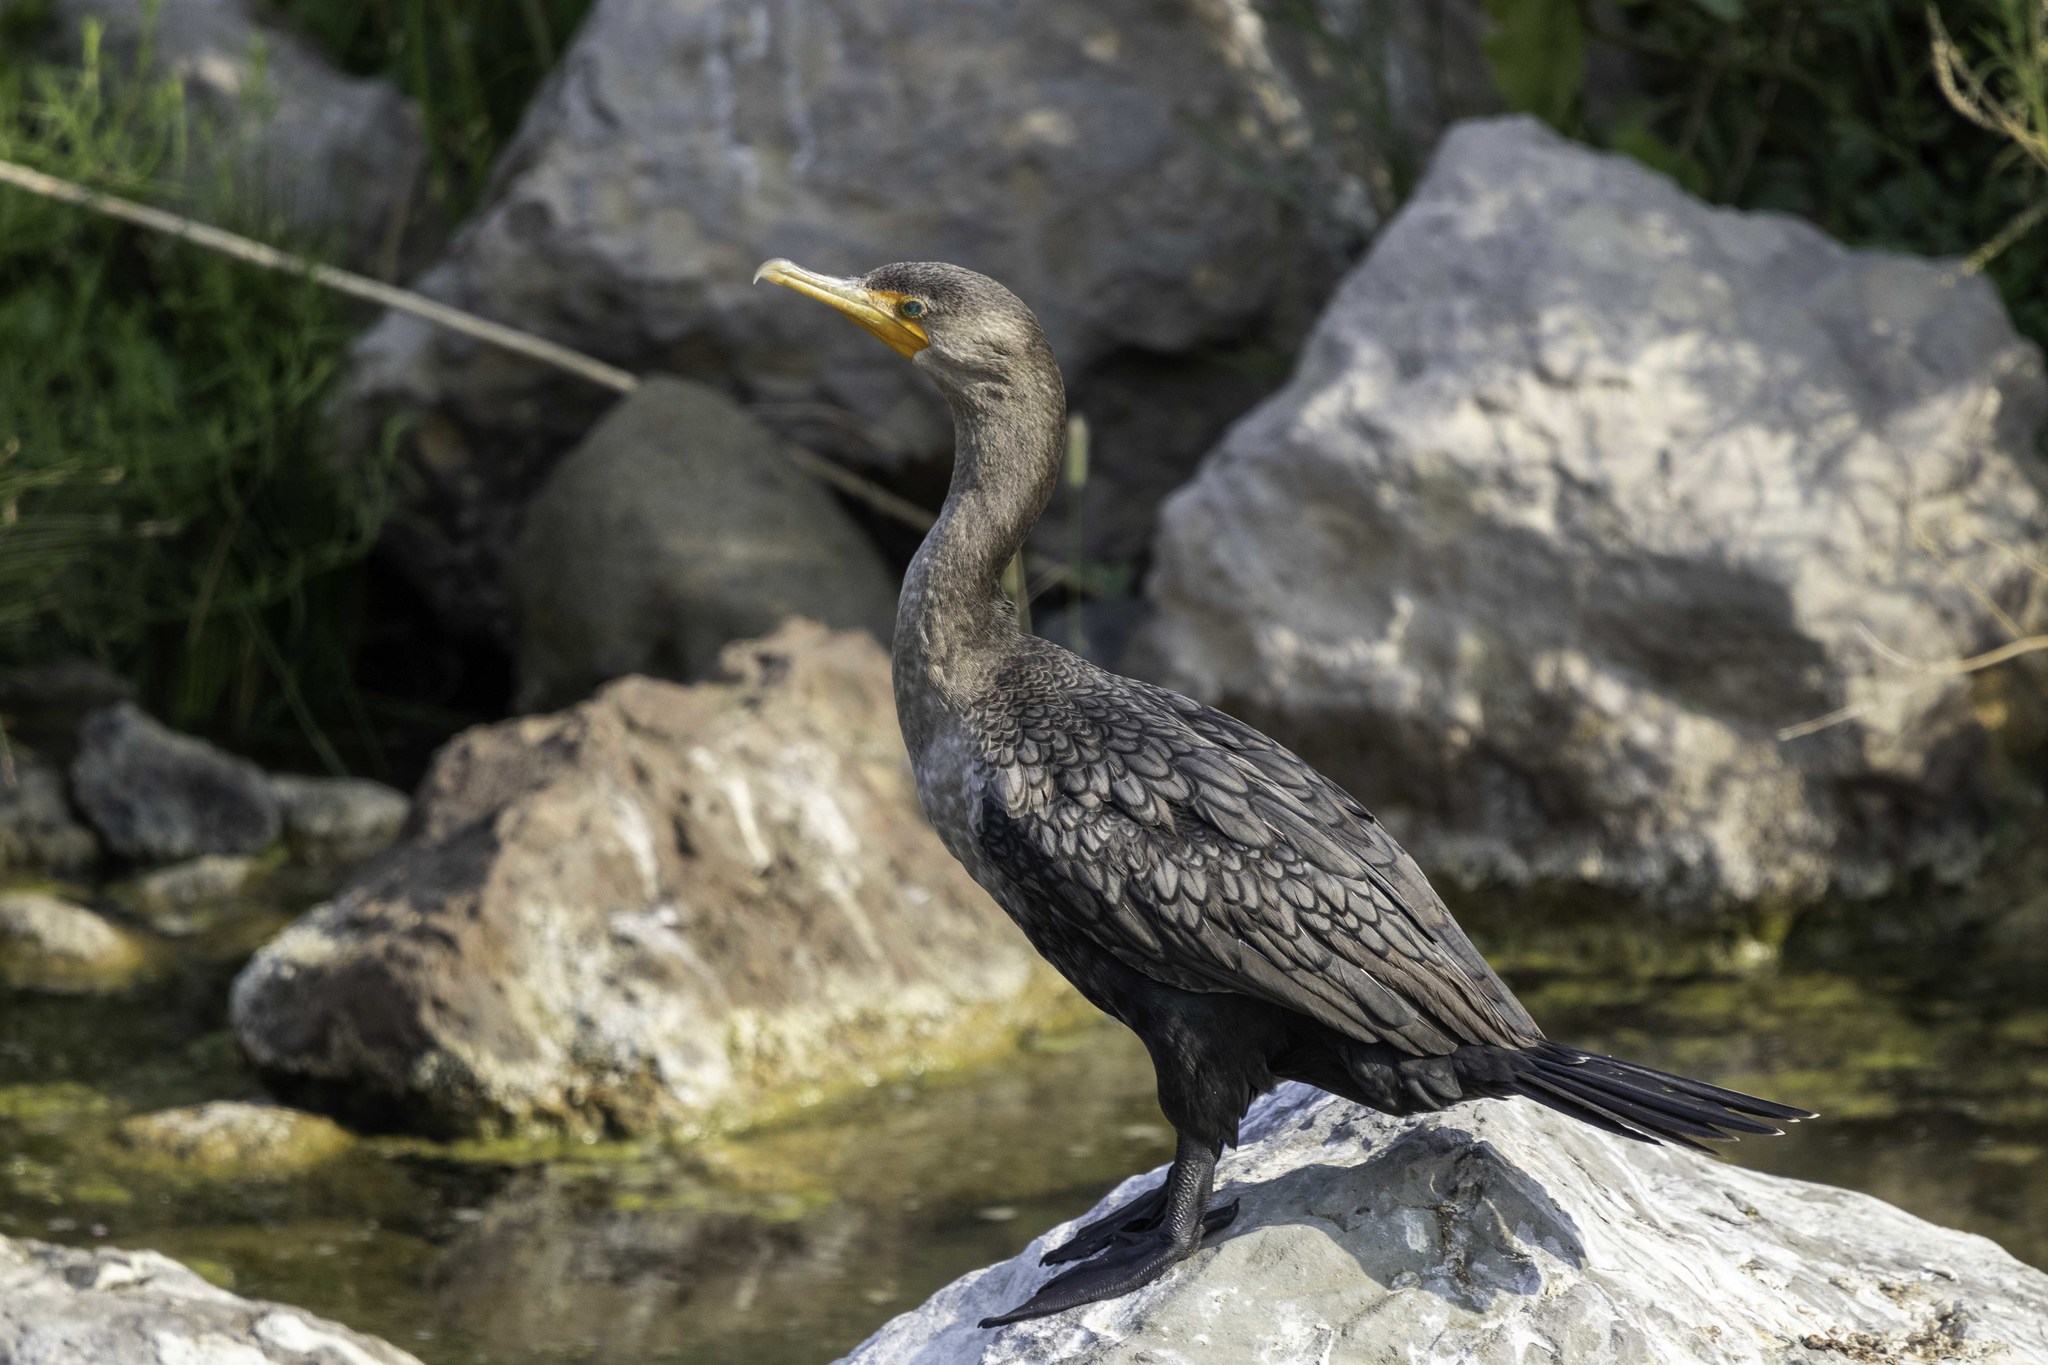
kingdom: Animalia
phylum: Chordata
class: Aves
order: Suliformes
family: Phalacrocoracidae
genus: Phalacrocorax
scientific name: Phalacrocorax auritus
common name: Double-crested cormorant
